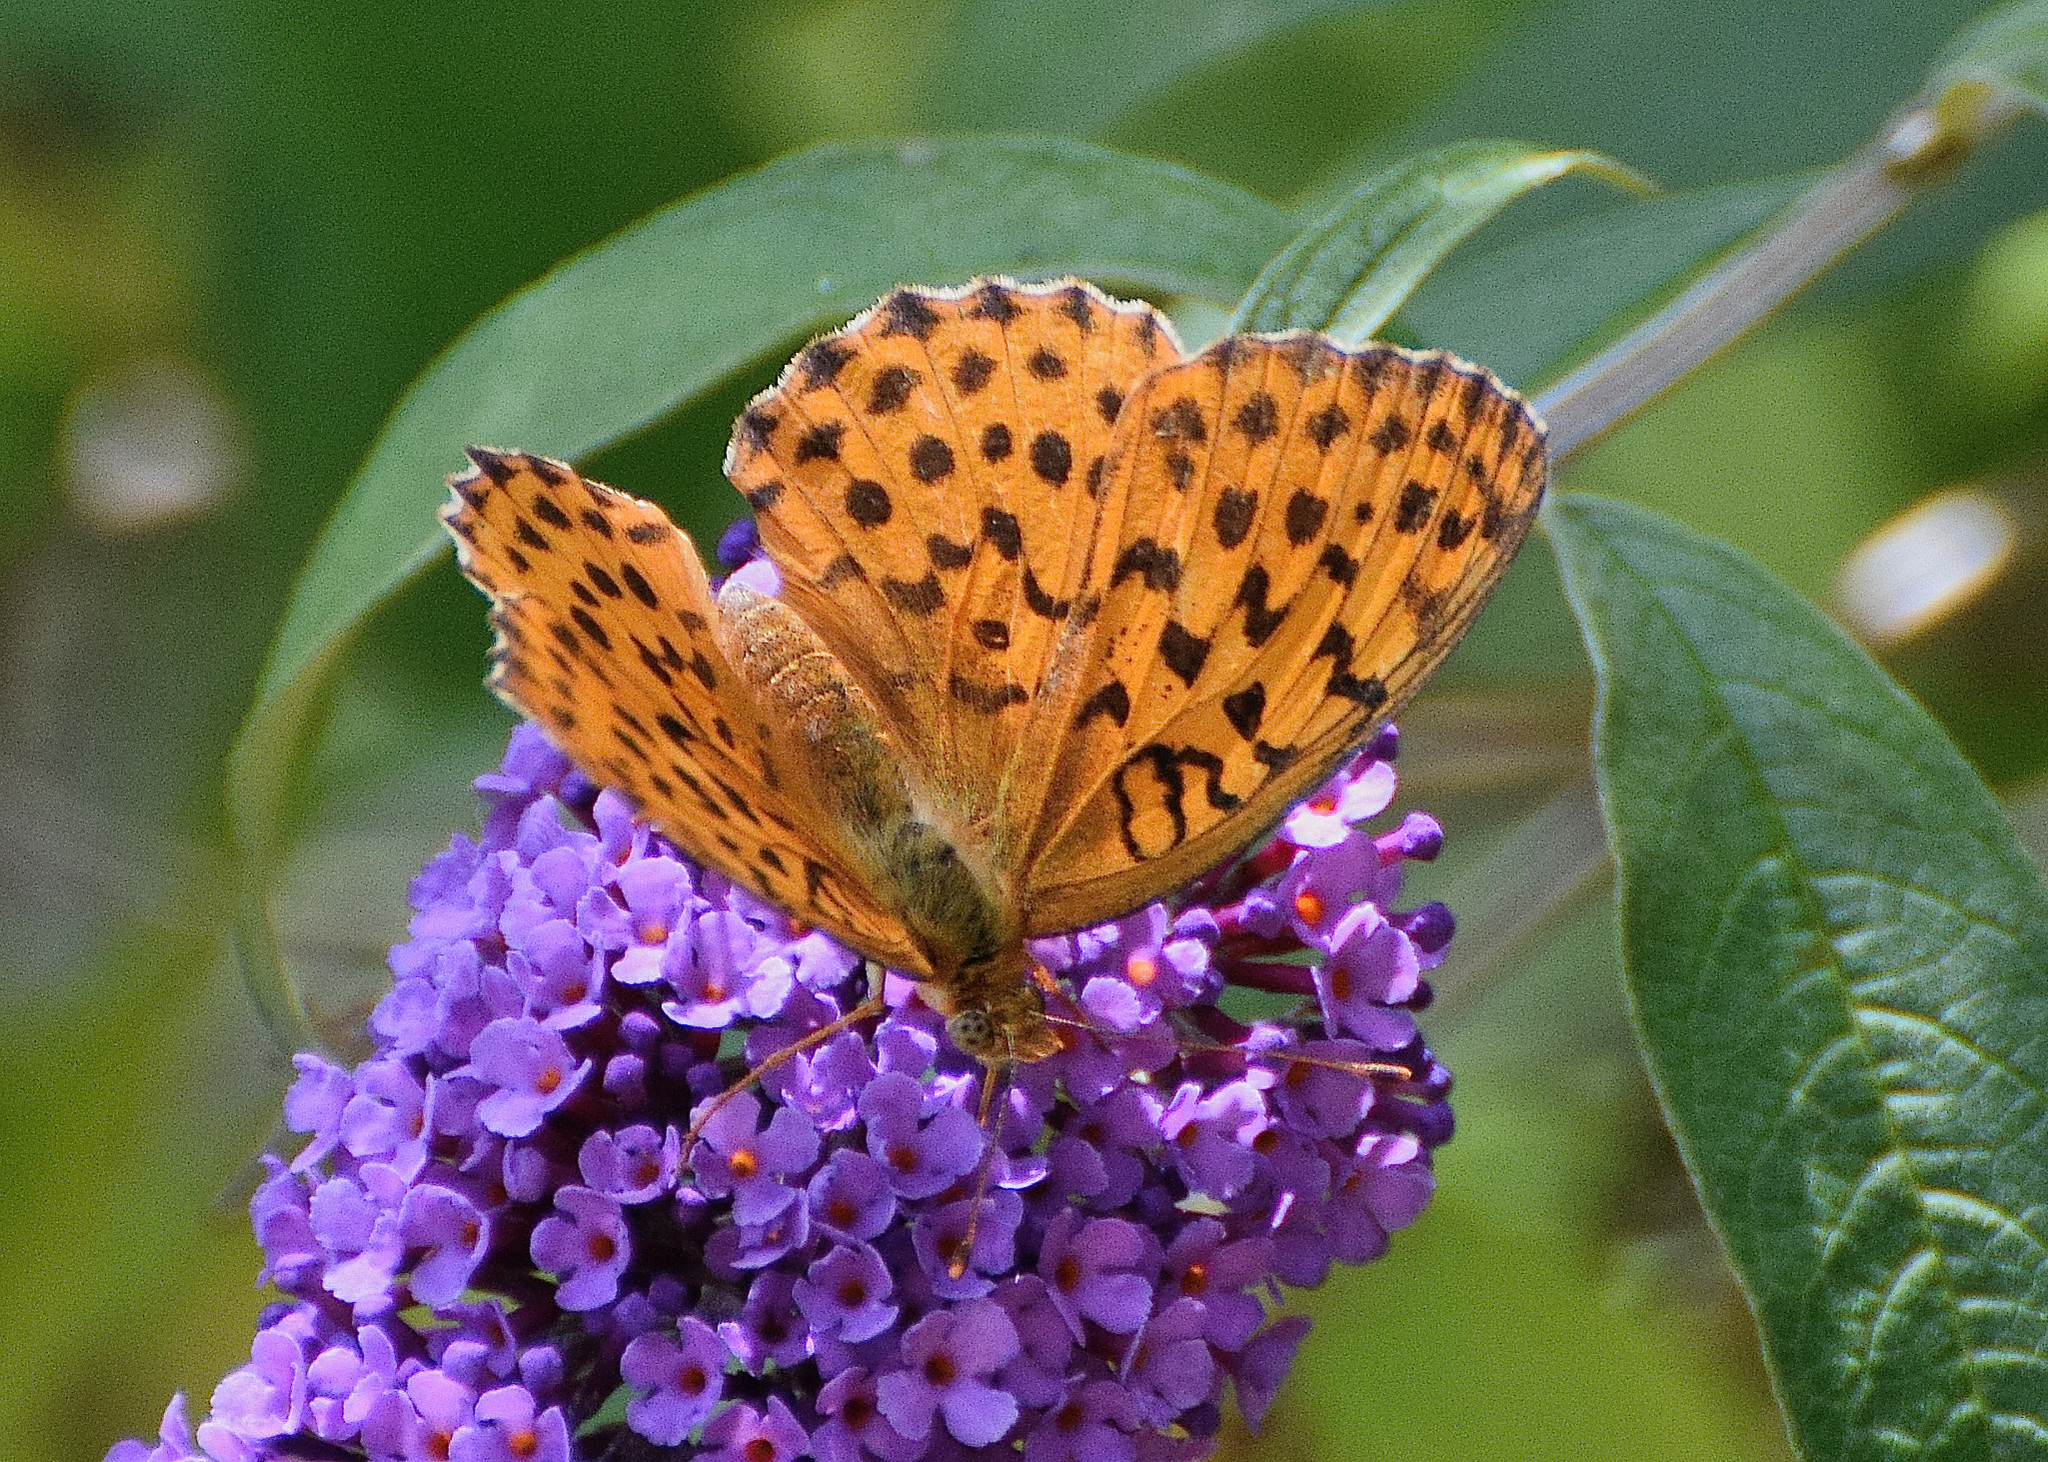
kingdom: Animalia
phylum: Arthropoda
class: Insecta
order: Lepidoptera
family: Nymphalidae
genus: Brenthis
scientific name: Brenthis daphne
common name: Marbled fritillary
